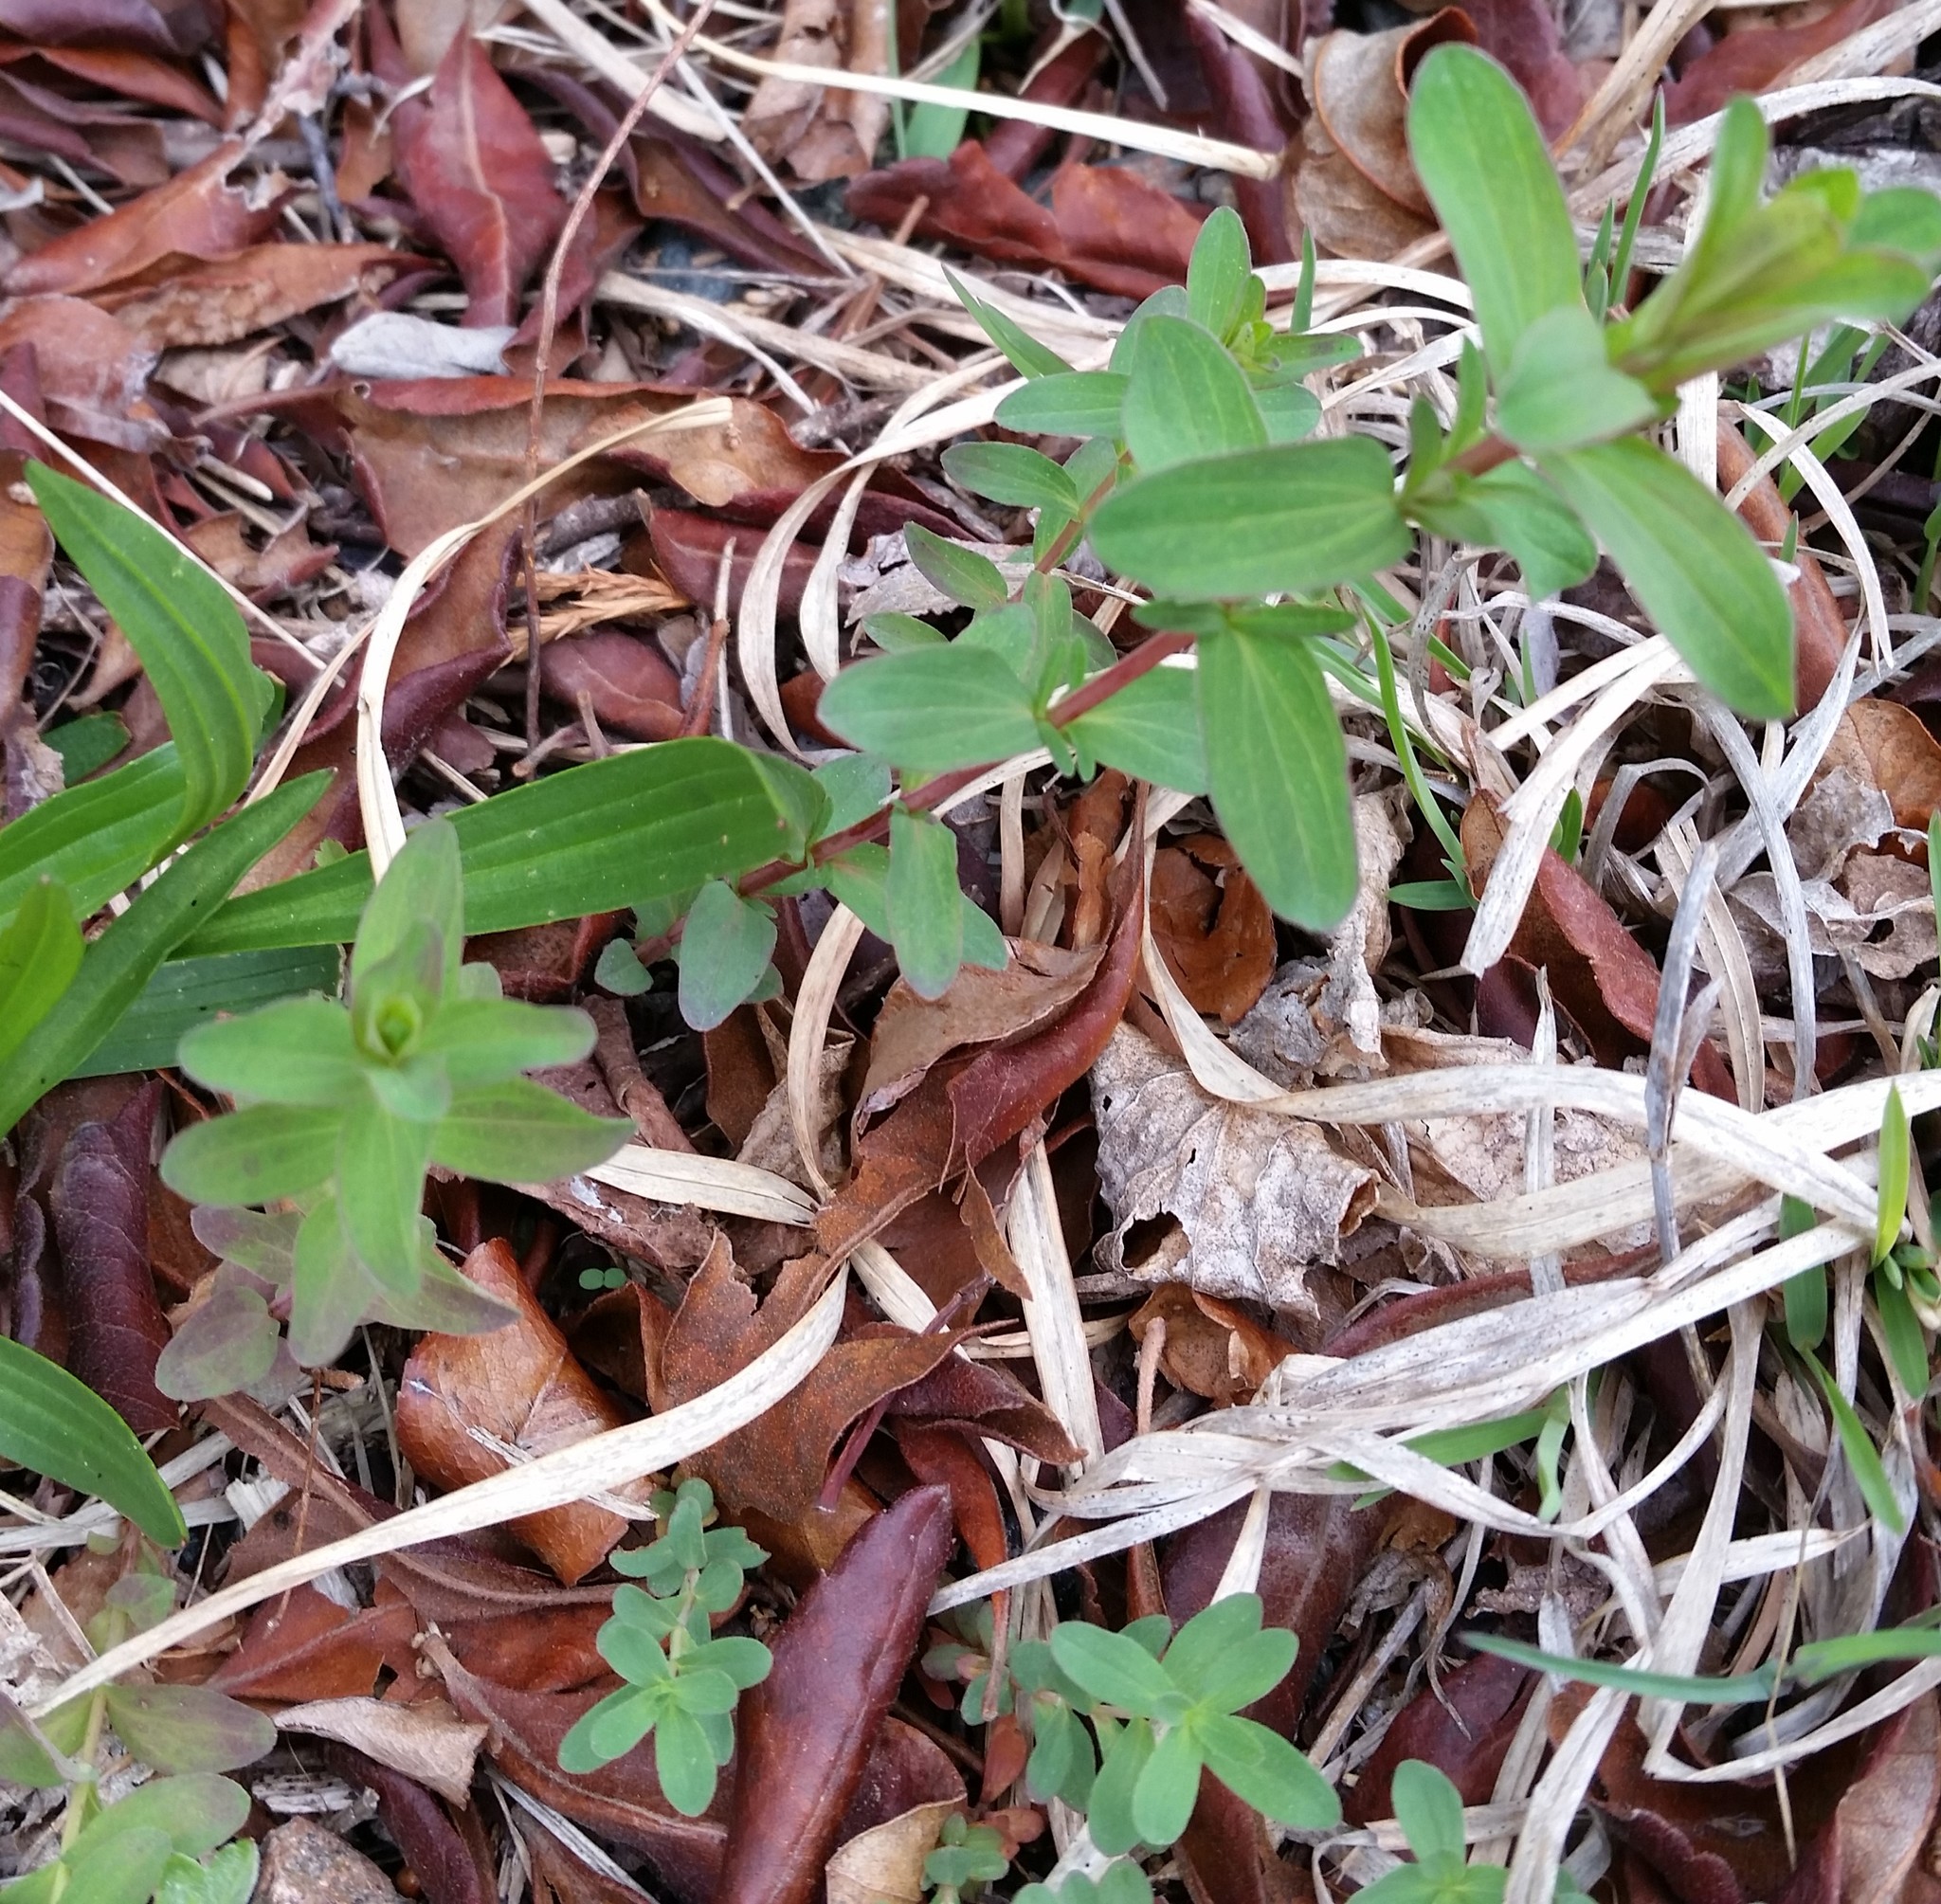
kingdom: Plantae
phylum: Tracheophyta
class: Magnoliopsida
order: Malpighiales
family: Hypericaceae
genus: Hypericum
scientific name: Hypericum perforatum
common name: Common st. johnswort
